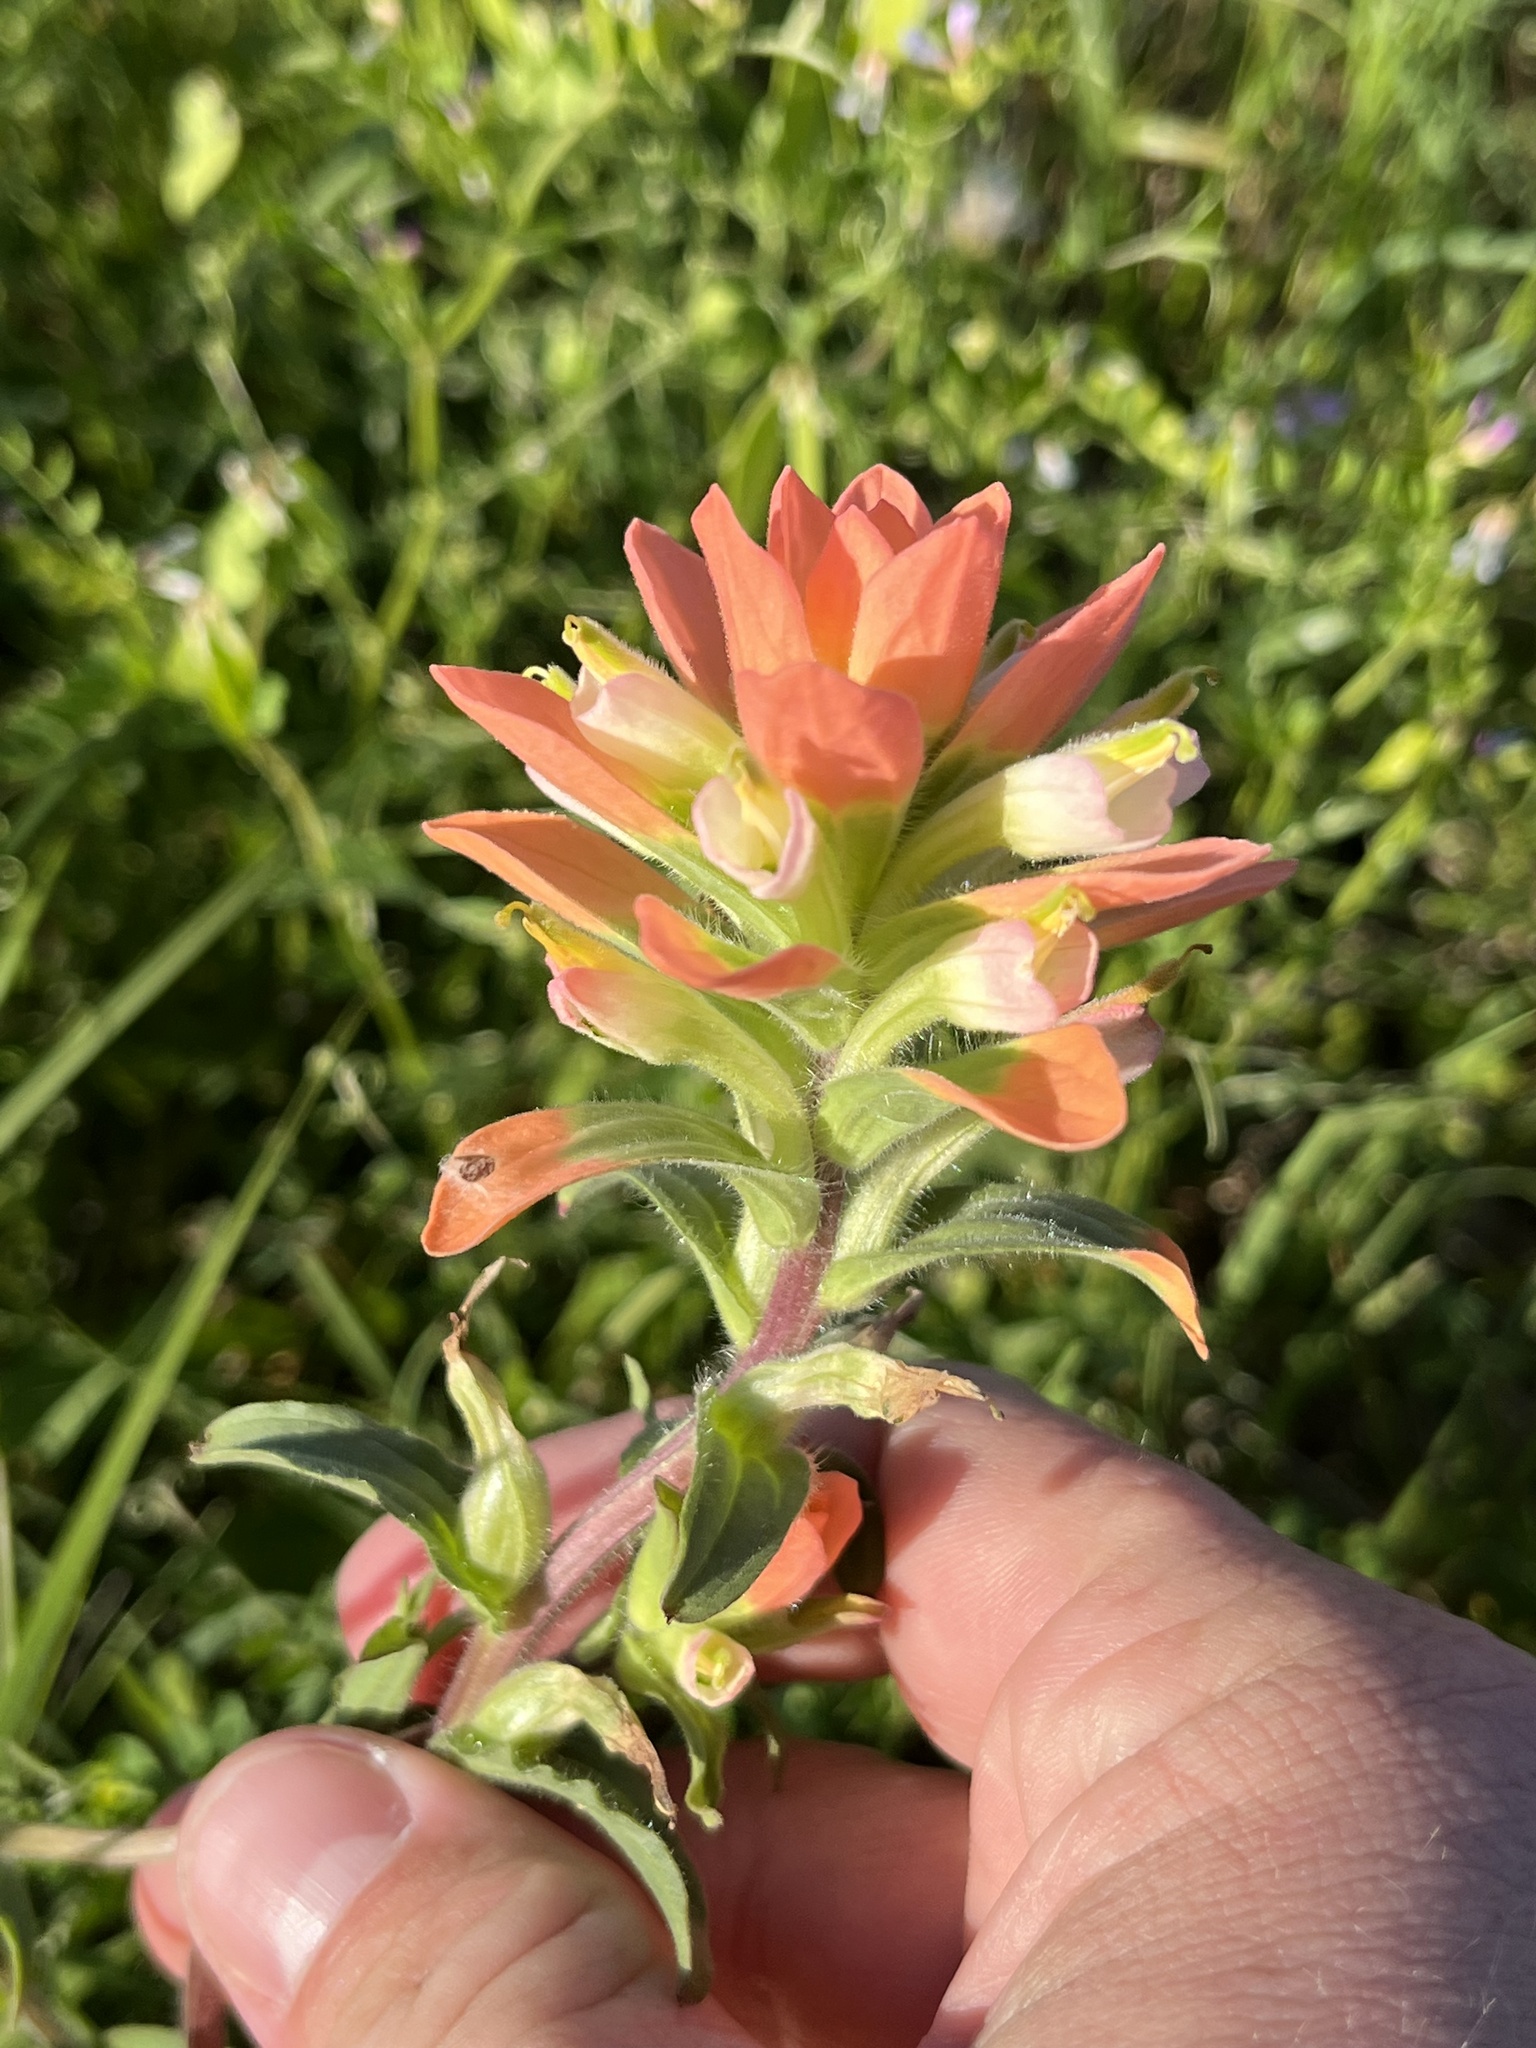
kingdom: Plantae
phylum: Tracheophyta
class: Magnoliopsida
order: Lamiales
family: Orobanchaceae
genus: Castilleja
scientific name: Castilleja indivisa
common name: Texas paintbrush
